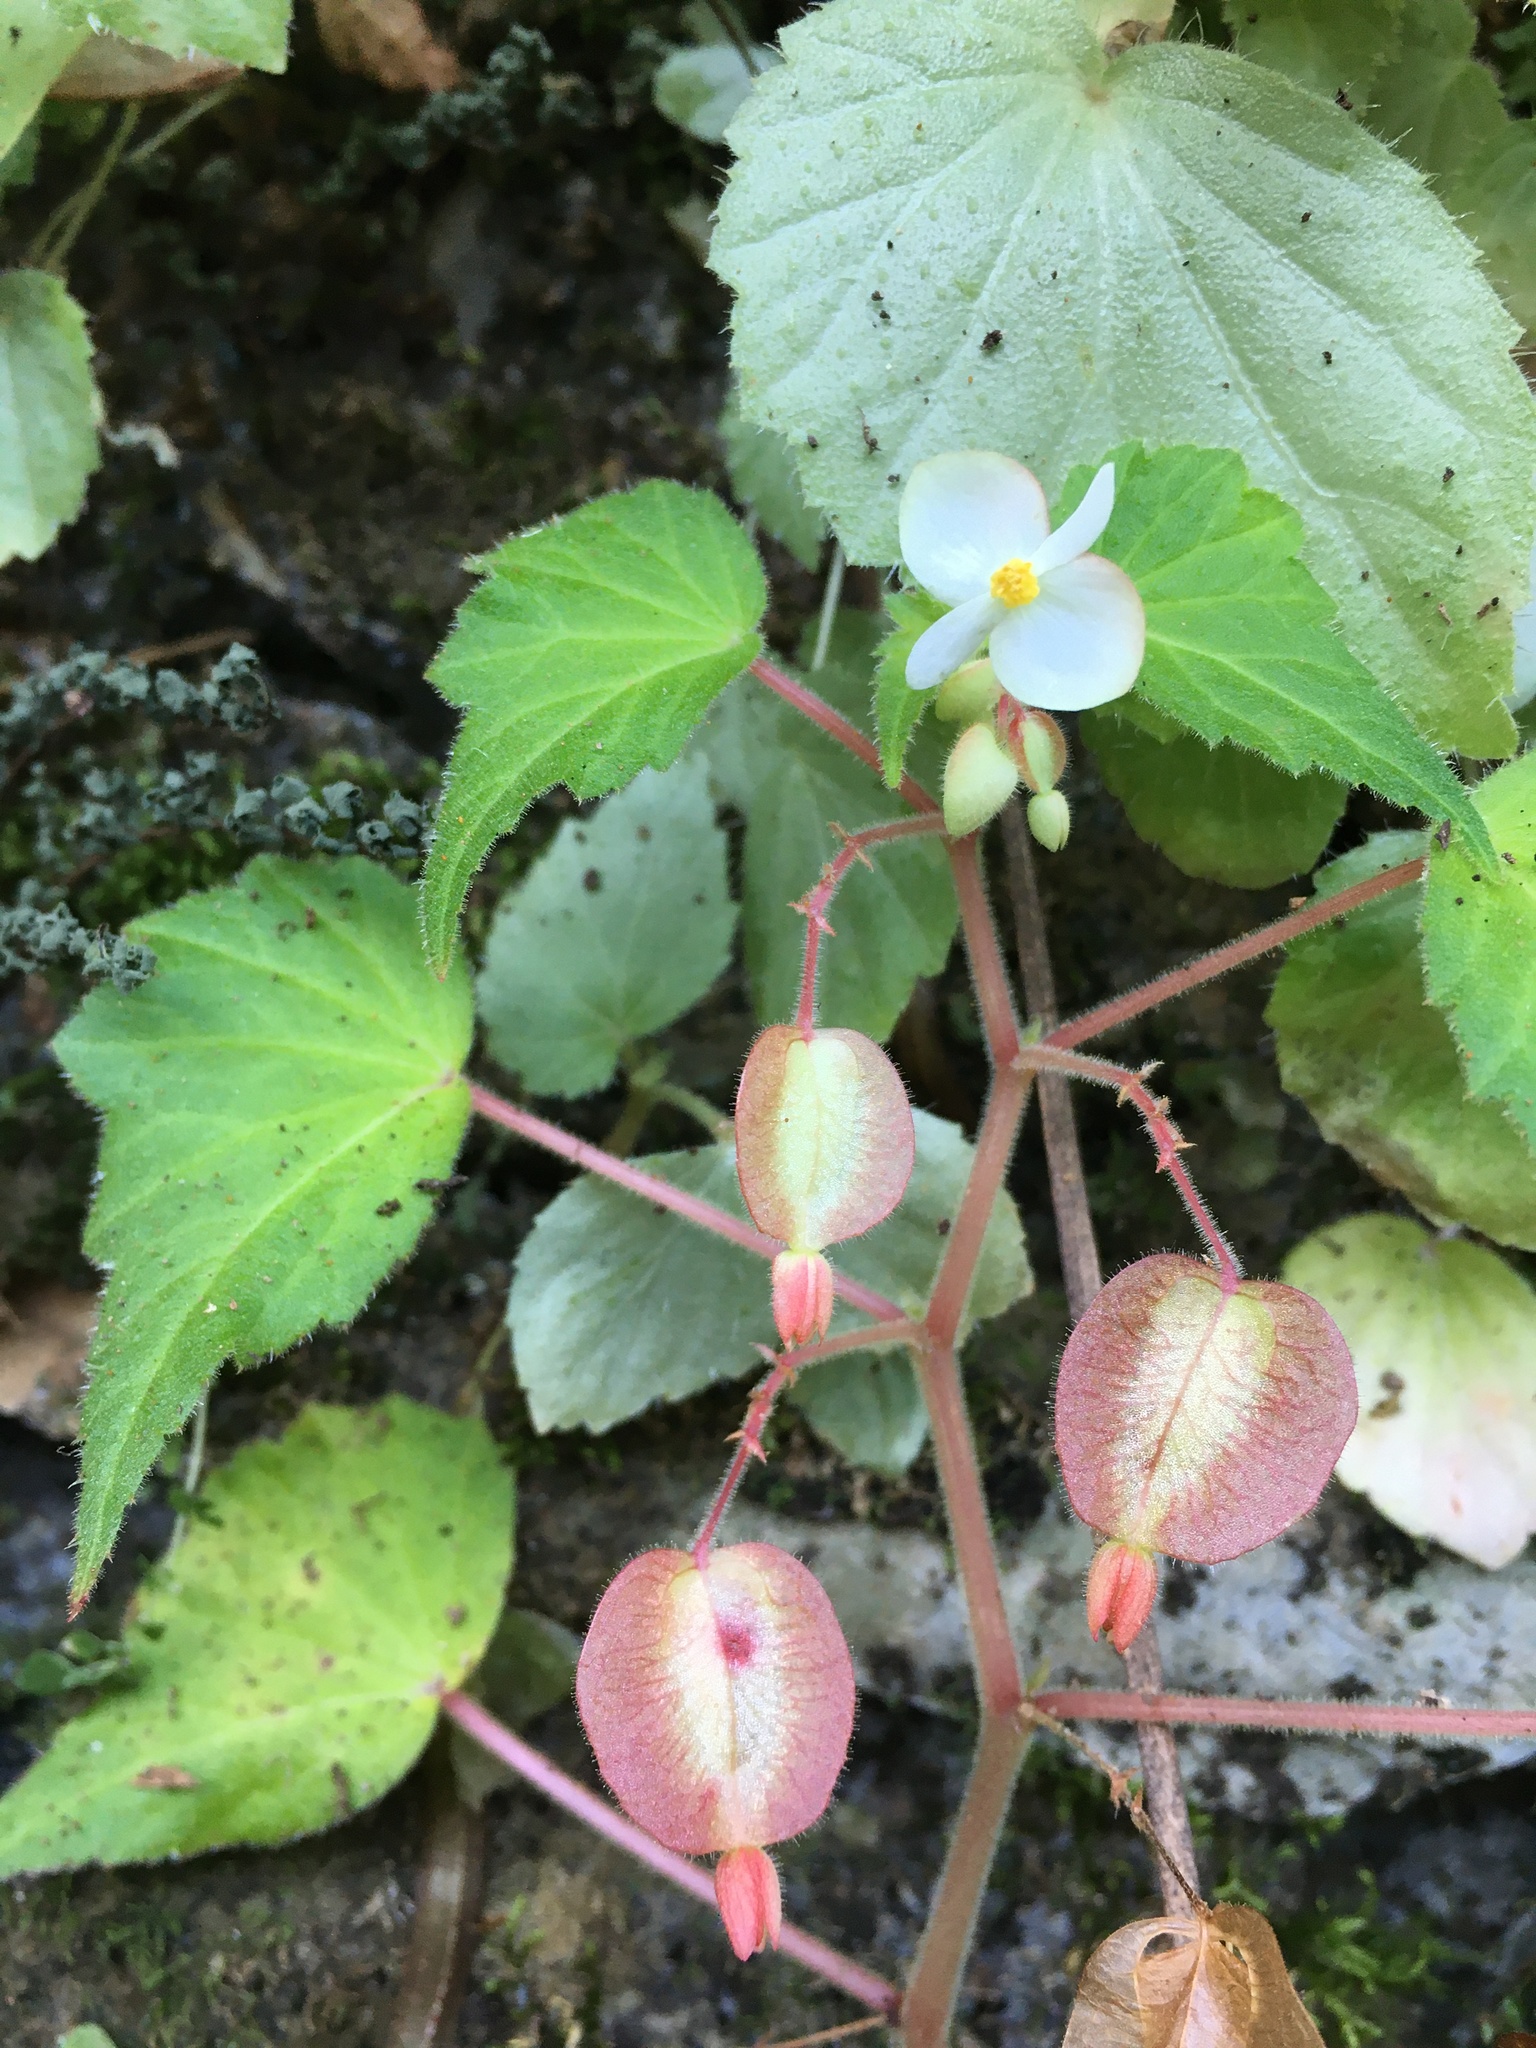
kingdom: Plantae
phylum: Tracheophyta
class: Magnoliopsida
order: Cucurbitales
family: Begoniaceae
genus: Begonia
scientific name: Begonia wallichiana
